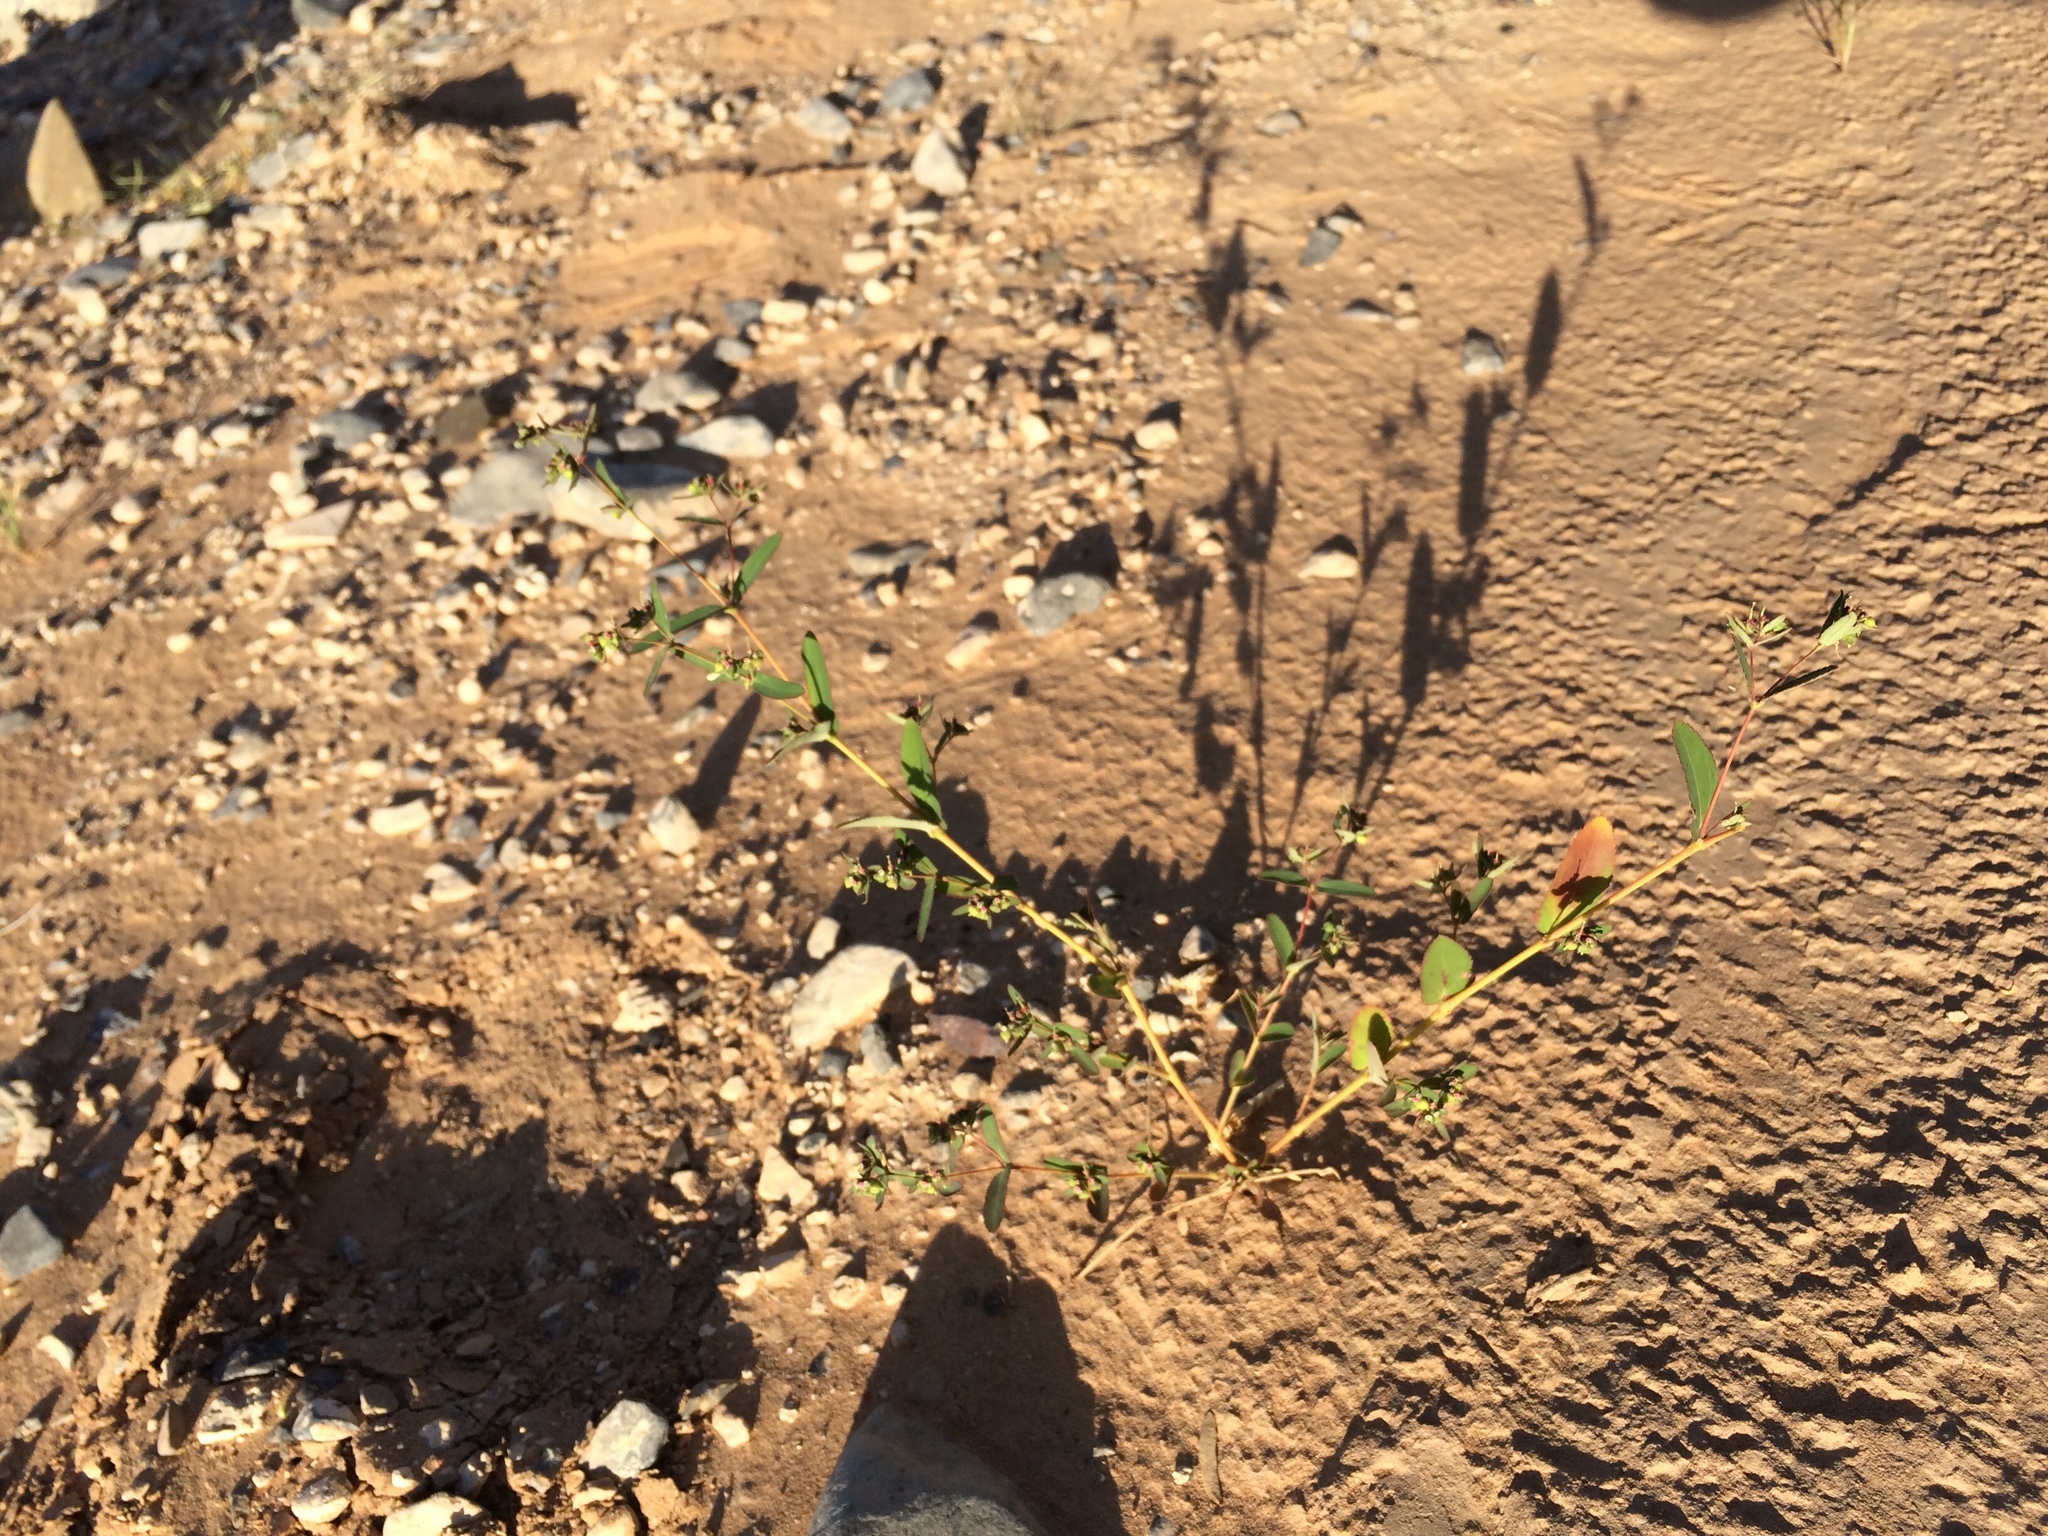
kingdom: Plantae
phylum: Tracheophyta
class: Magnoliopsida
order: Malpighiales
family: Euphorbiaceae
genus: Euphorbia
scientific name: Euphorbia hyssopifolia
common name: Hyssopleaf sandmat
